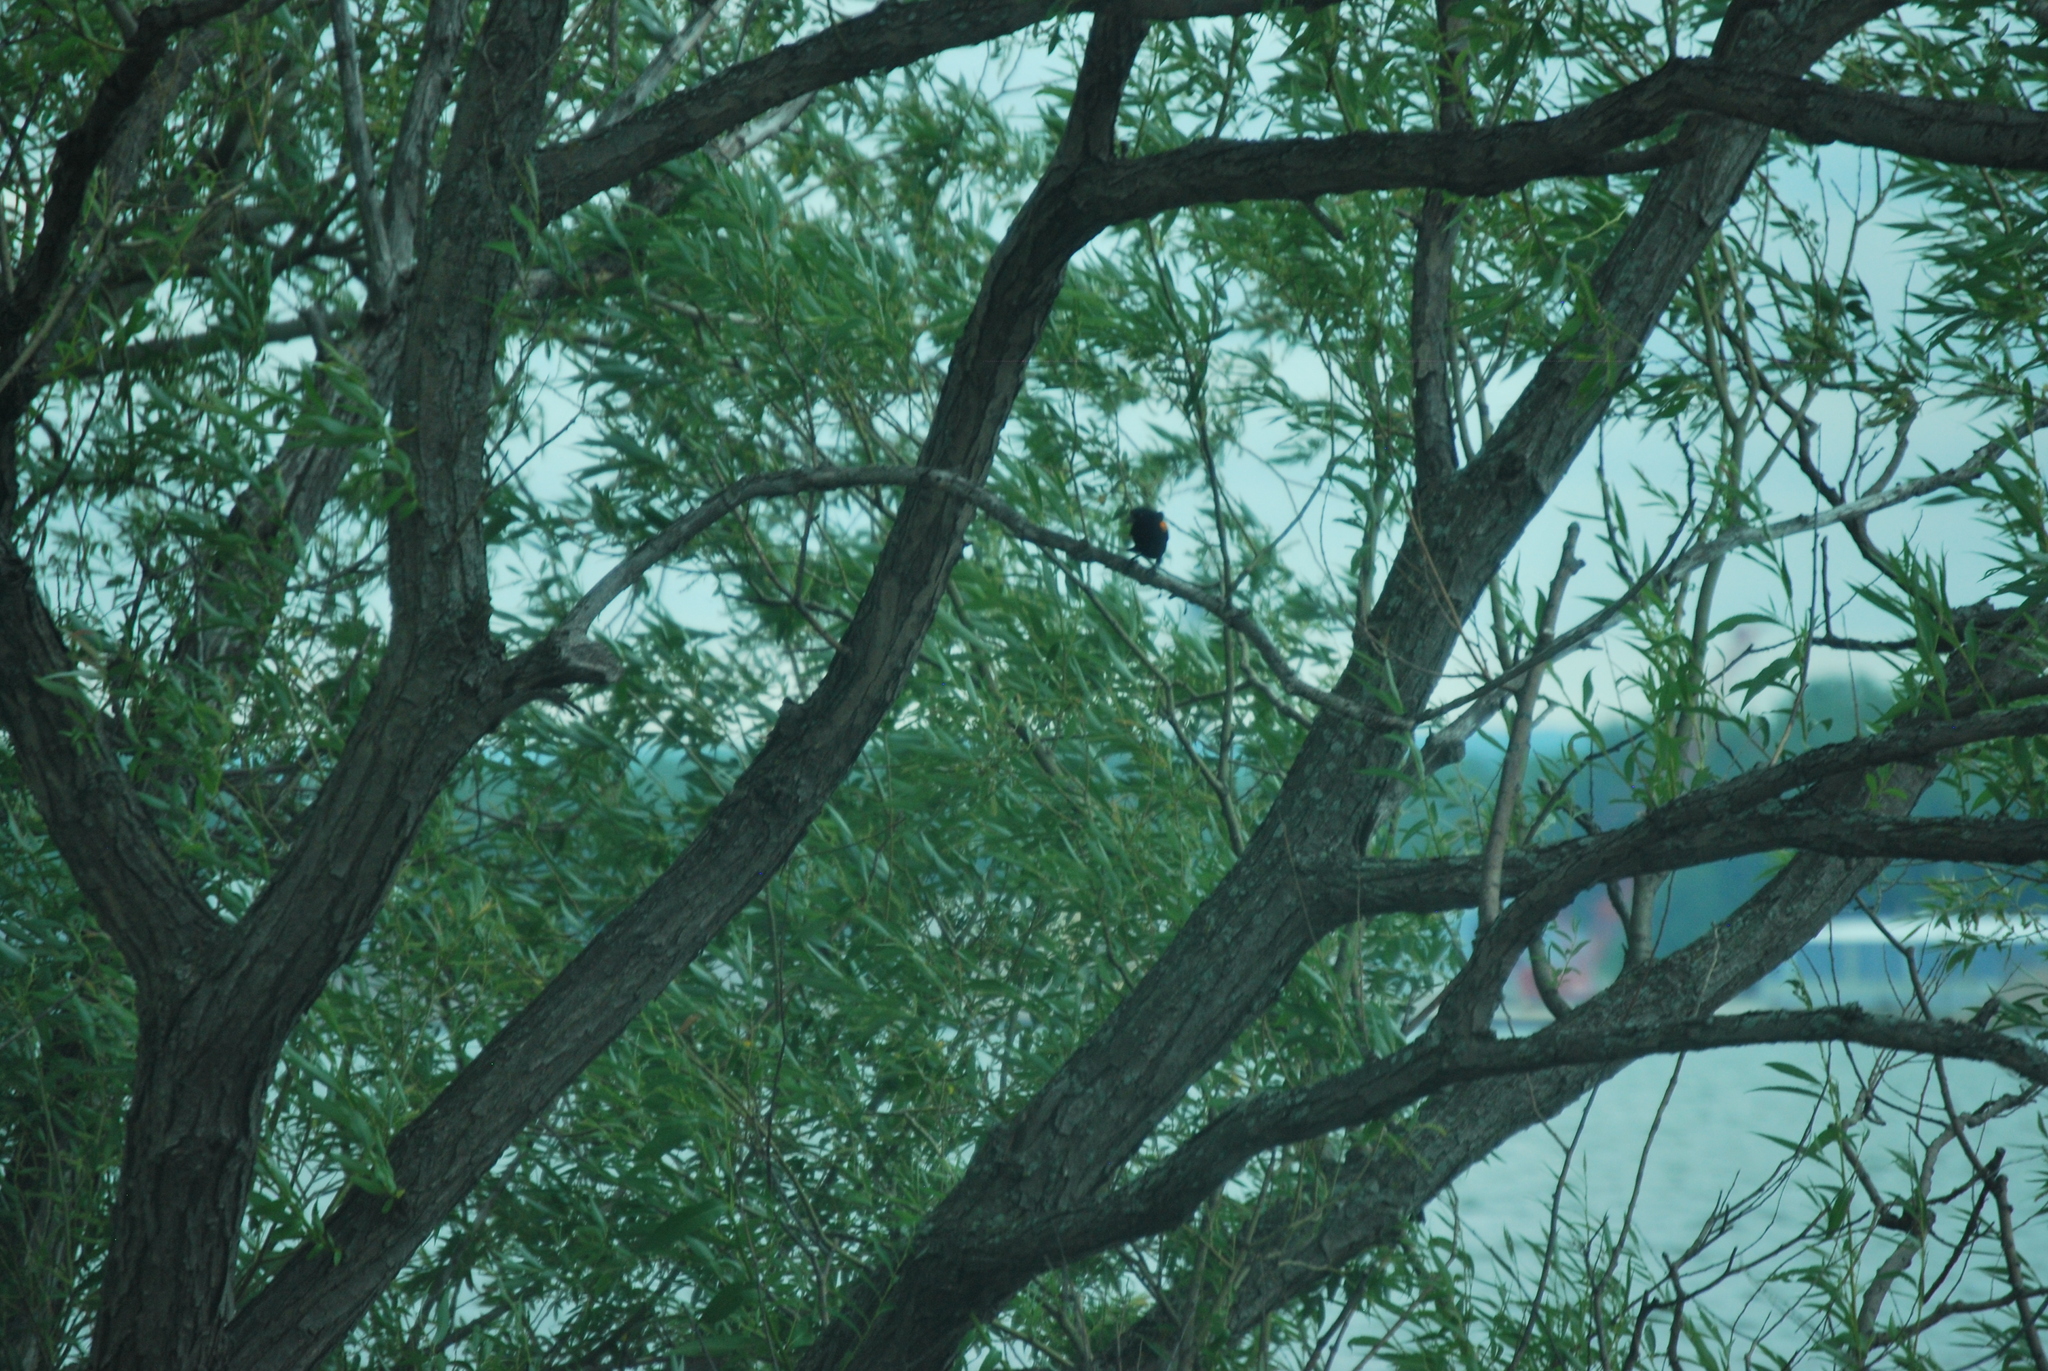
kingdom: Animalia
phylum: Chordata
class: Aves
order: Passeriformes
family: Icteridae
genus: Agelaius
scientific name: Agelaius phoeniceus
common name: Red-winged blackbird
